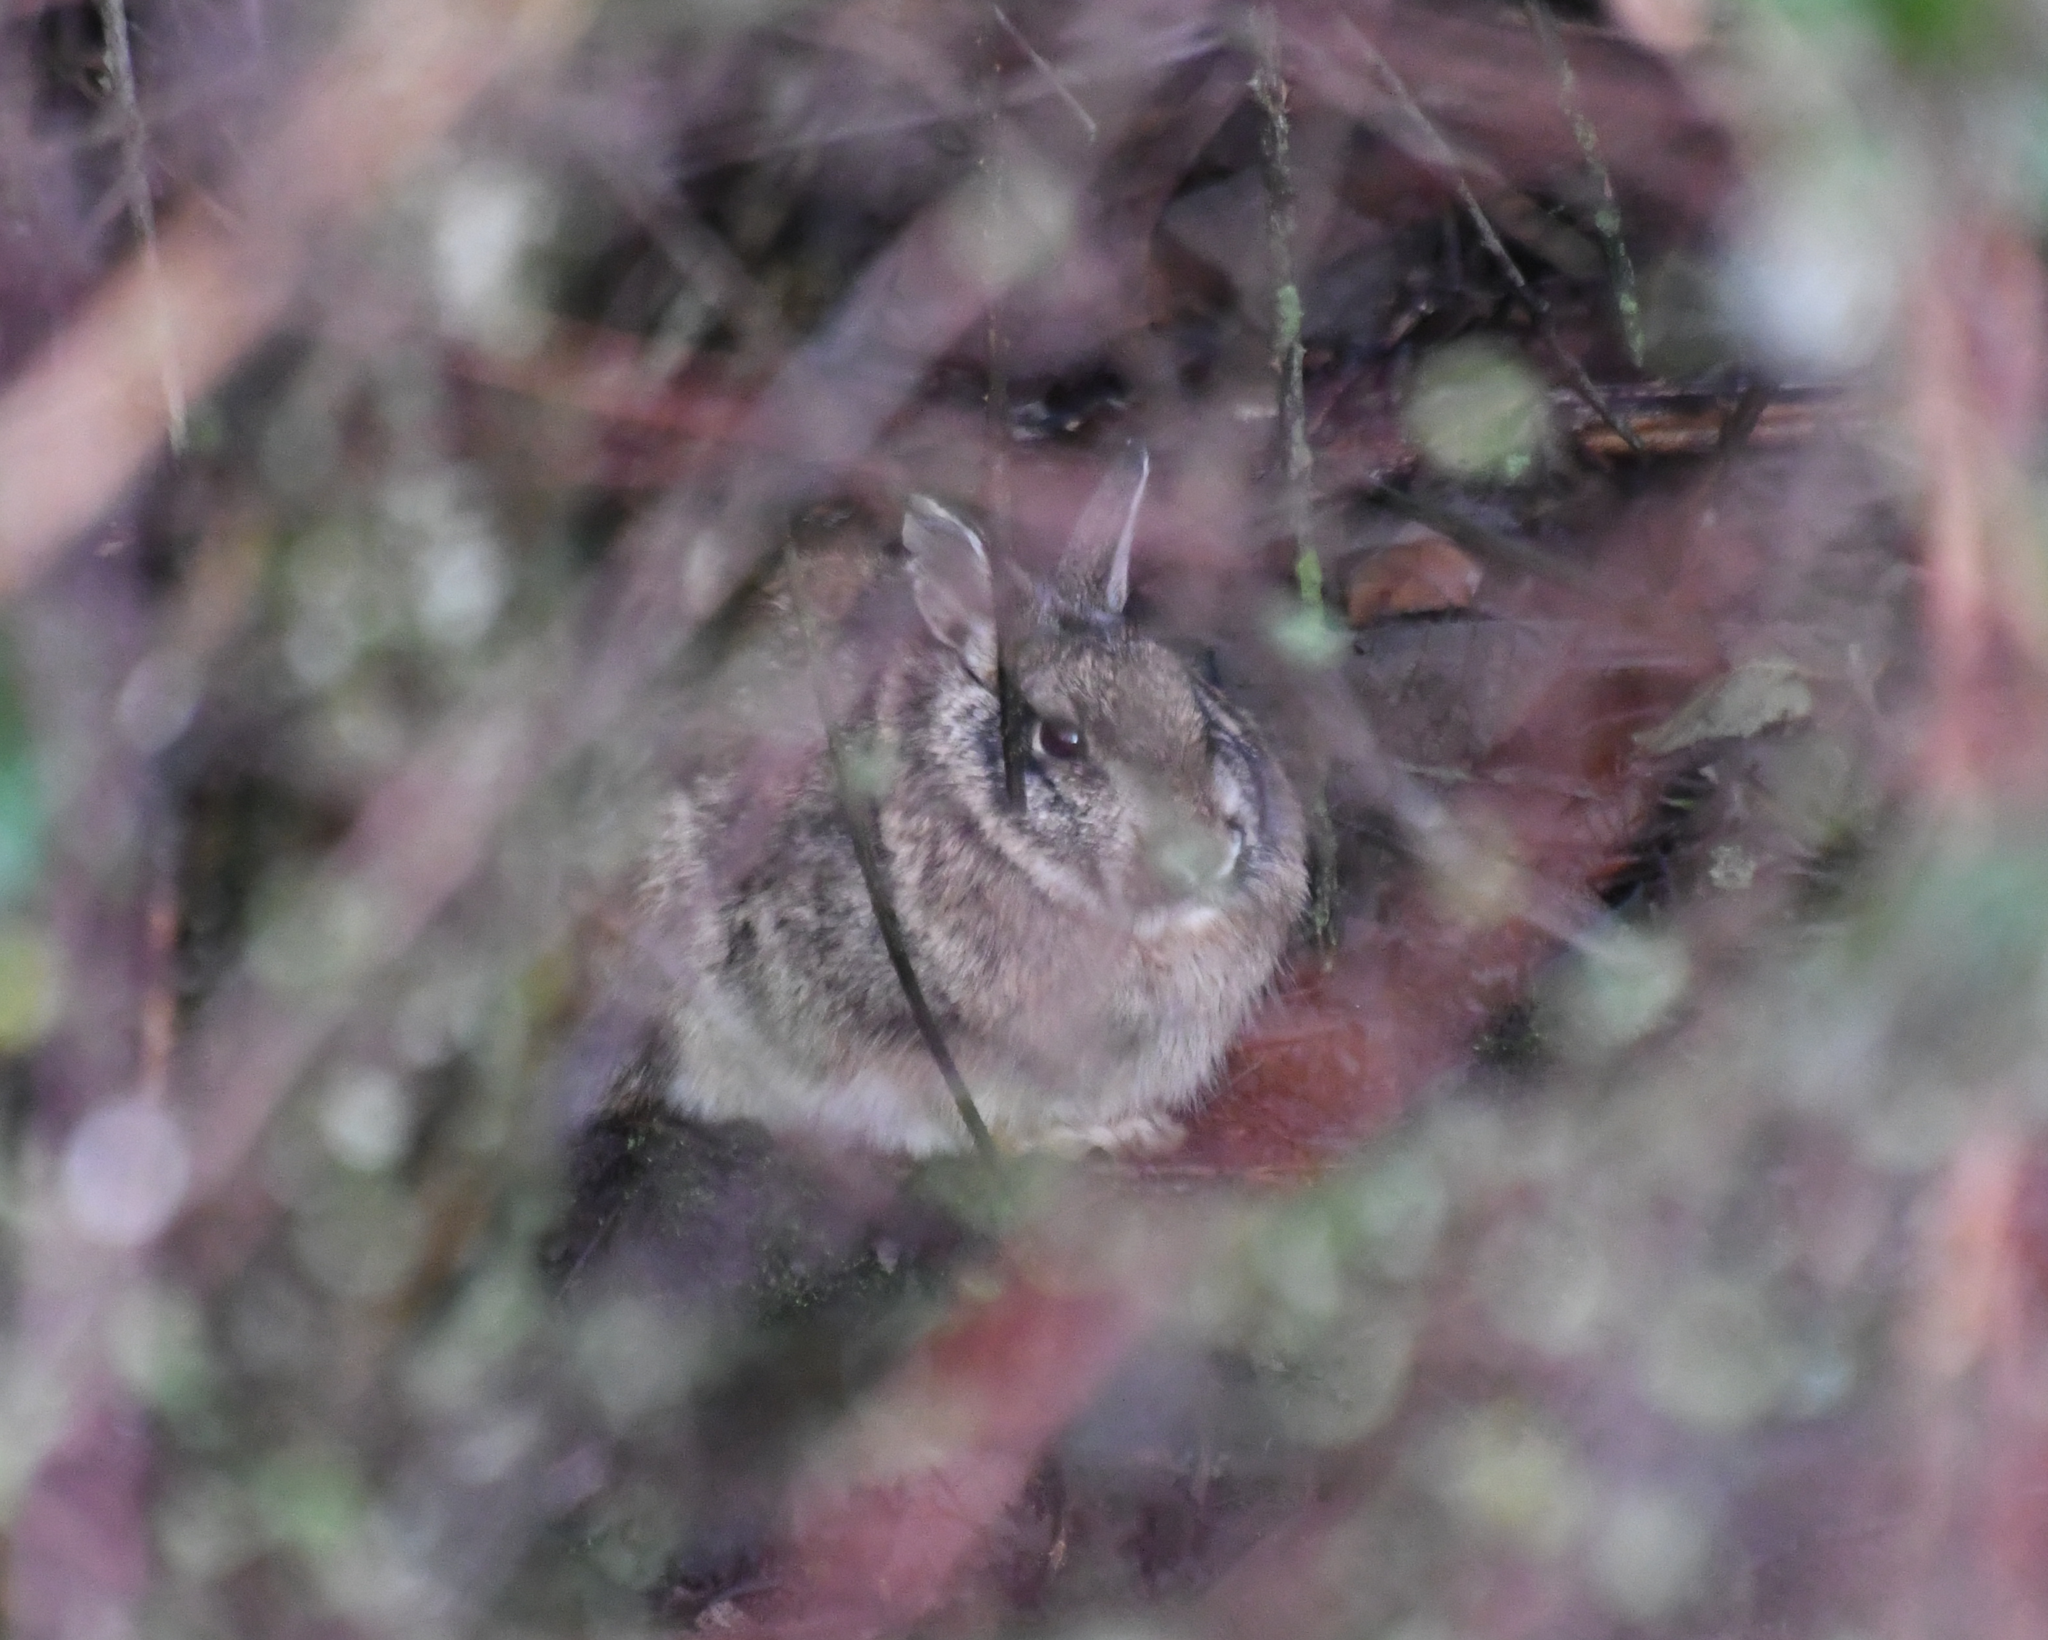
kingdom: Animalia
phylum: Chordata
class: Mammalia
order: Lagomorpha
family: Leporidae
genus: Sylvilagus
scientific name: Sylvilagus floridanus
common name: Eastern cottontail
